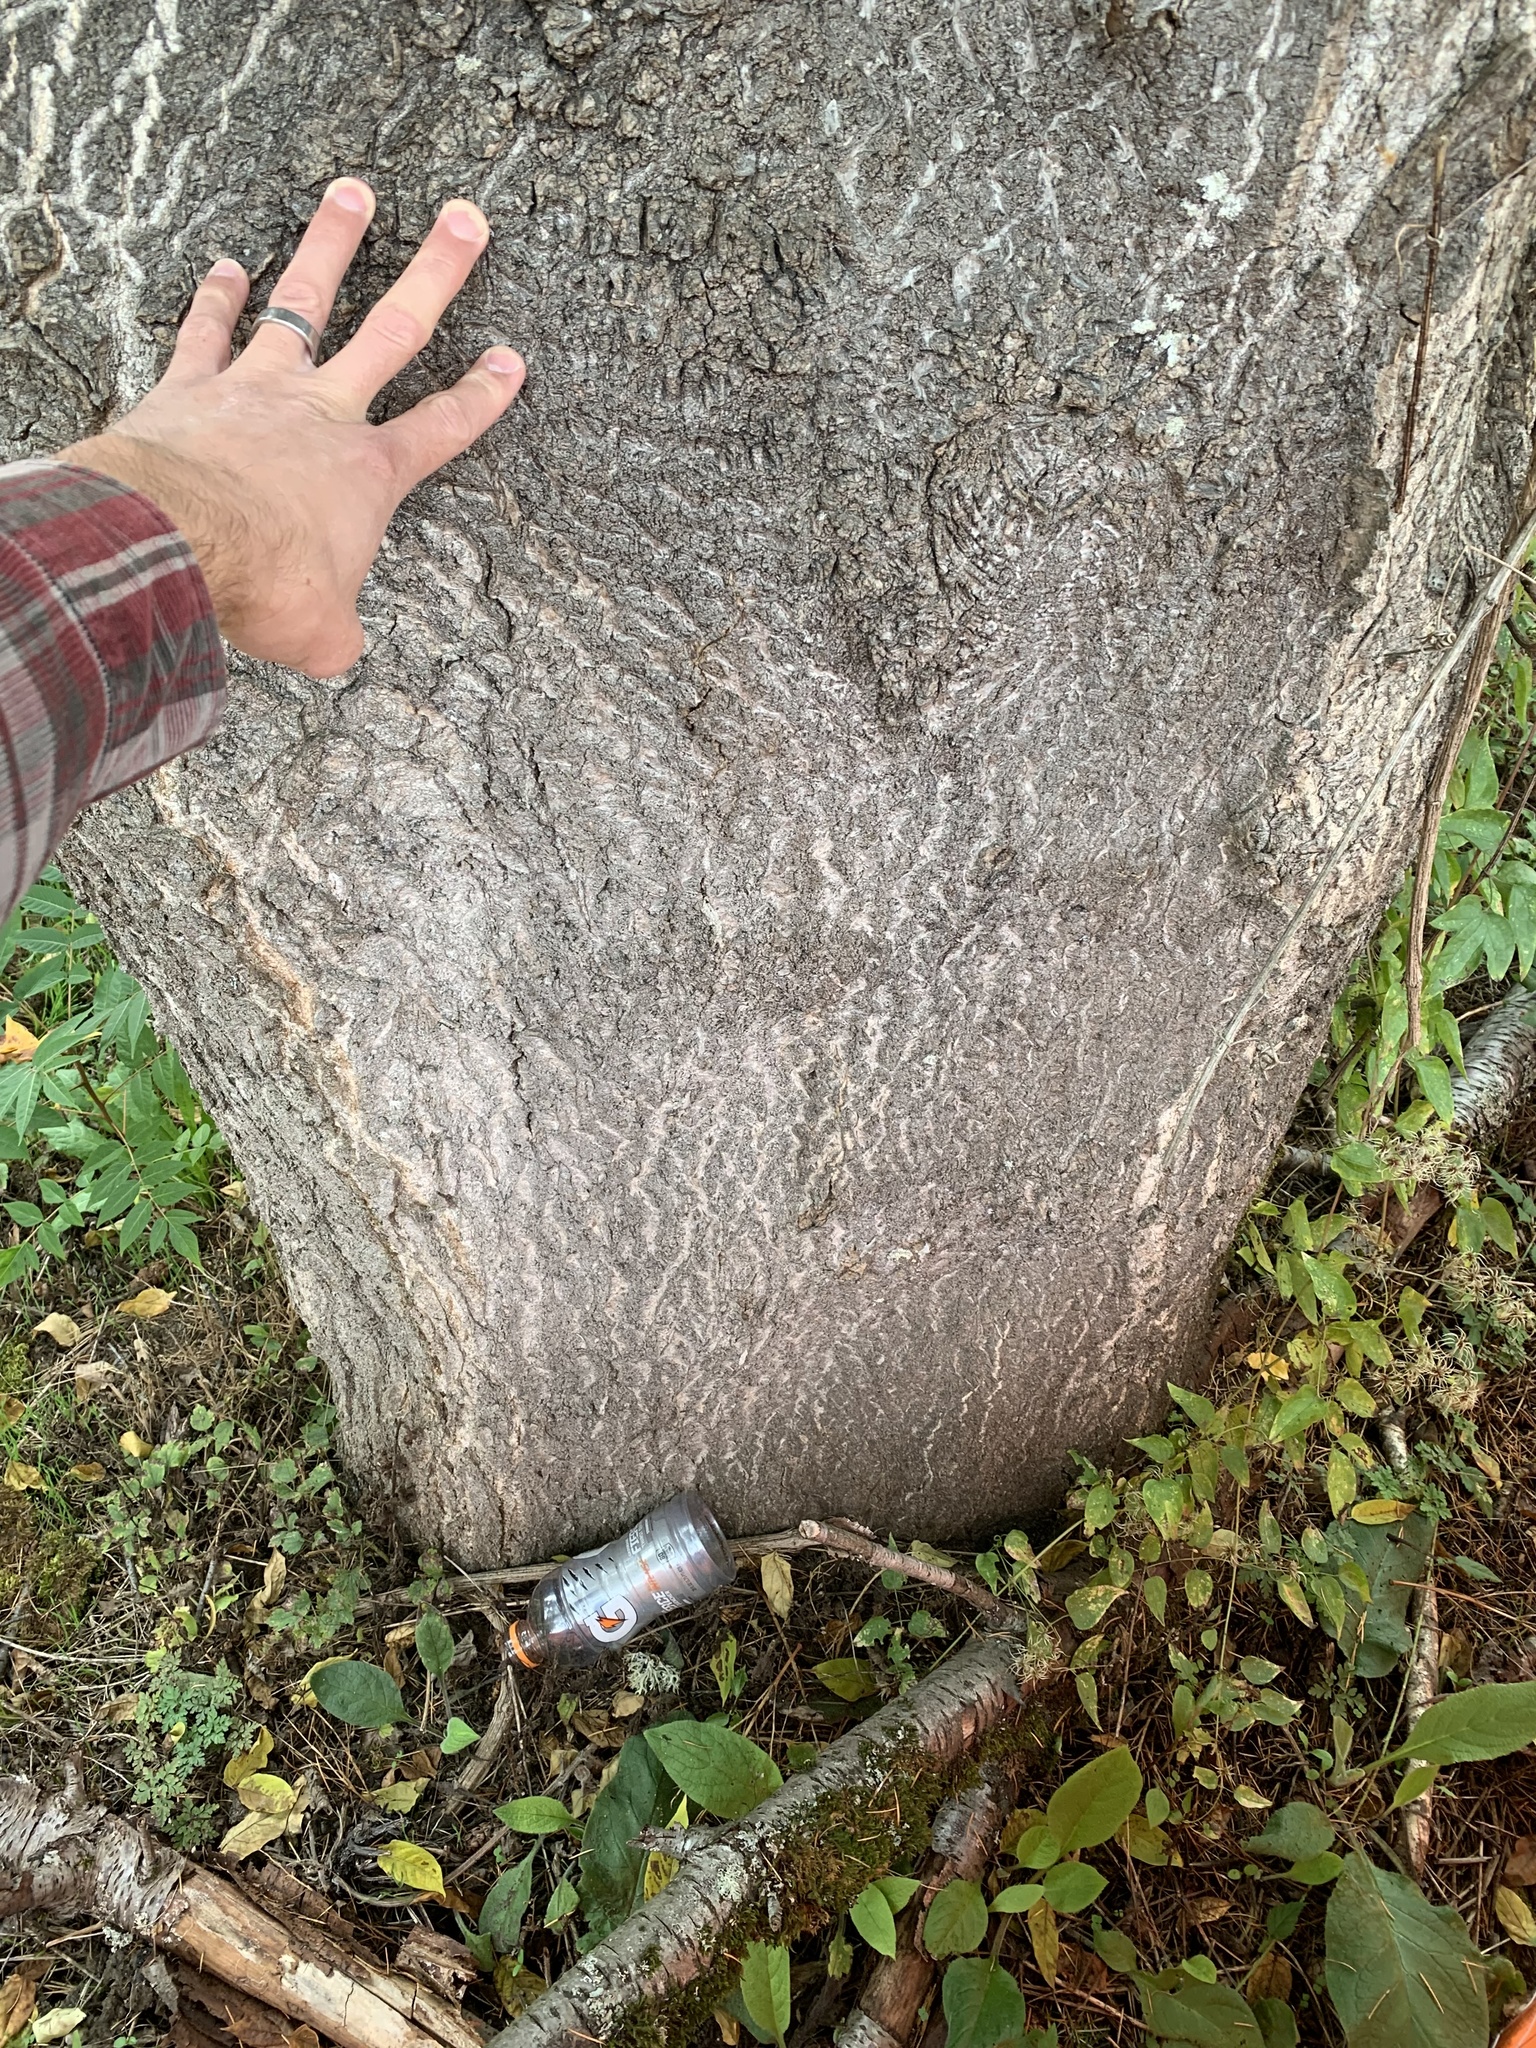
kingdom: Plantae
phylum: Tracheophyta
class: Magnoliopsida
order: Sapindales
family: Simaroubaceae
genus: Ailanthus
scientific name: Ailanthus altissima
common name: Tree-of-heaven
